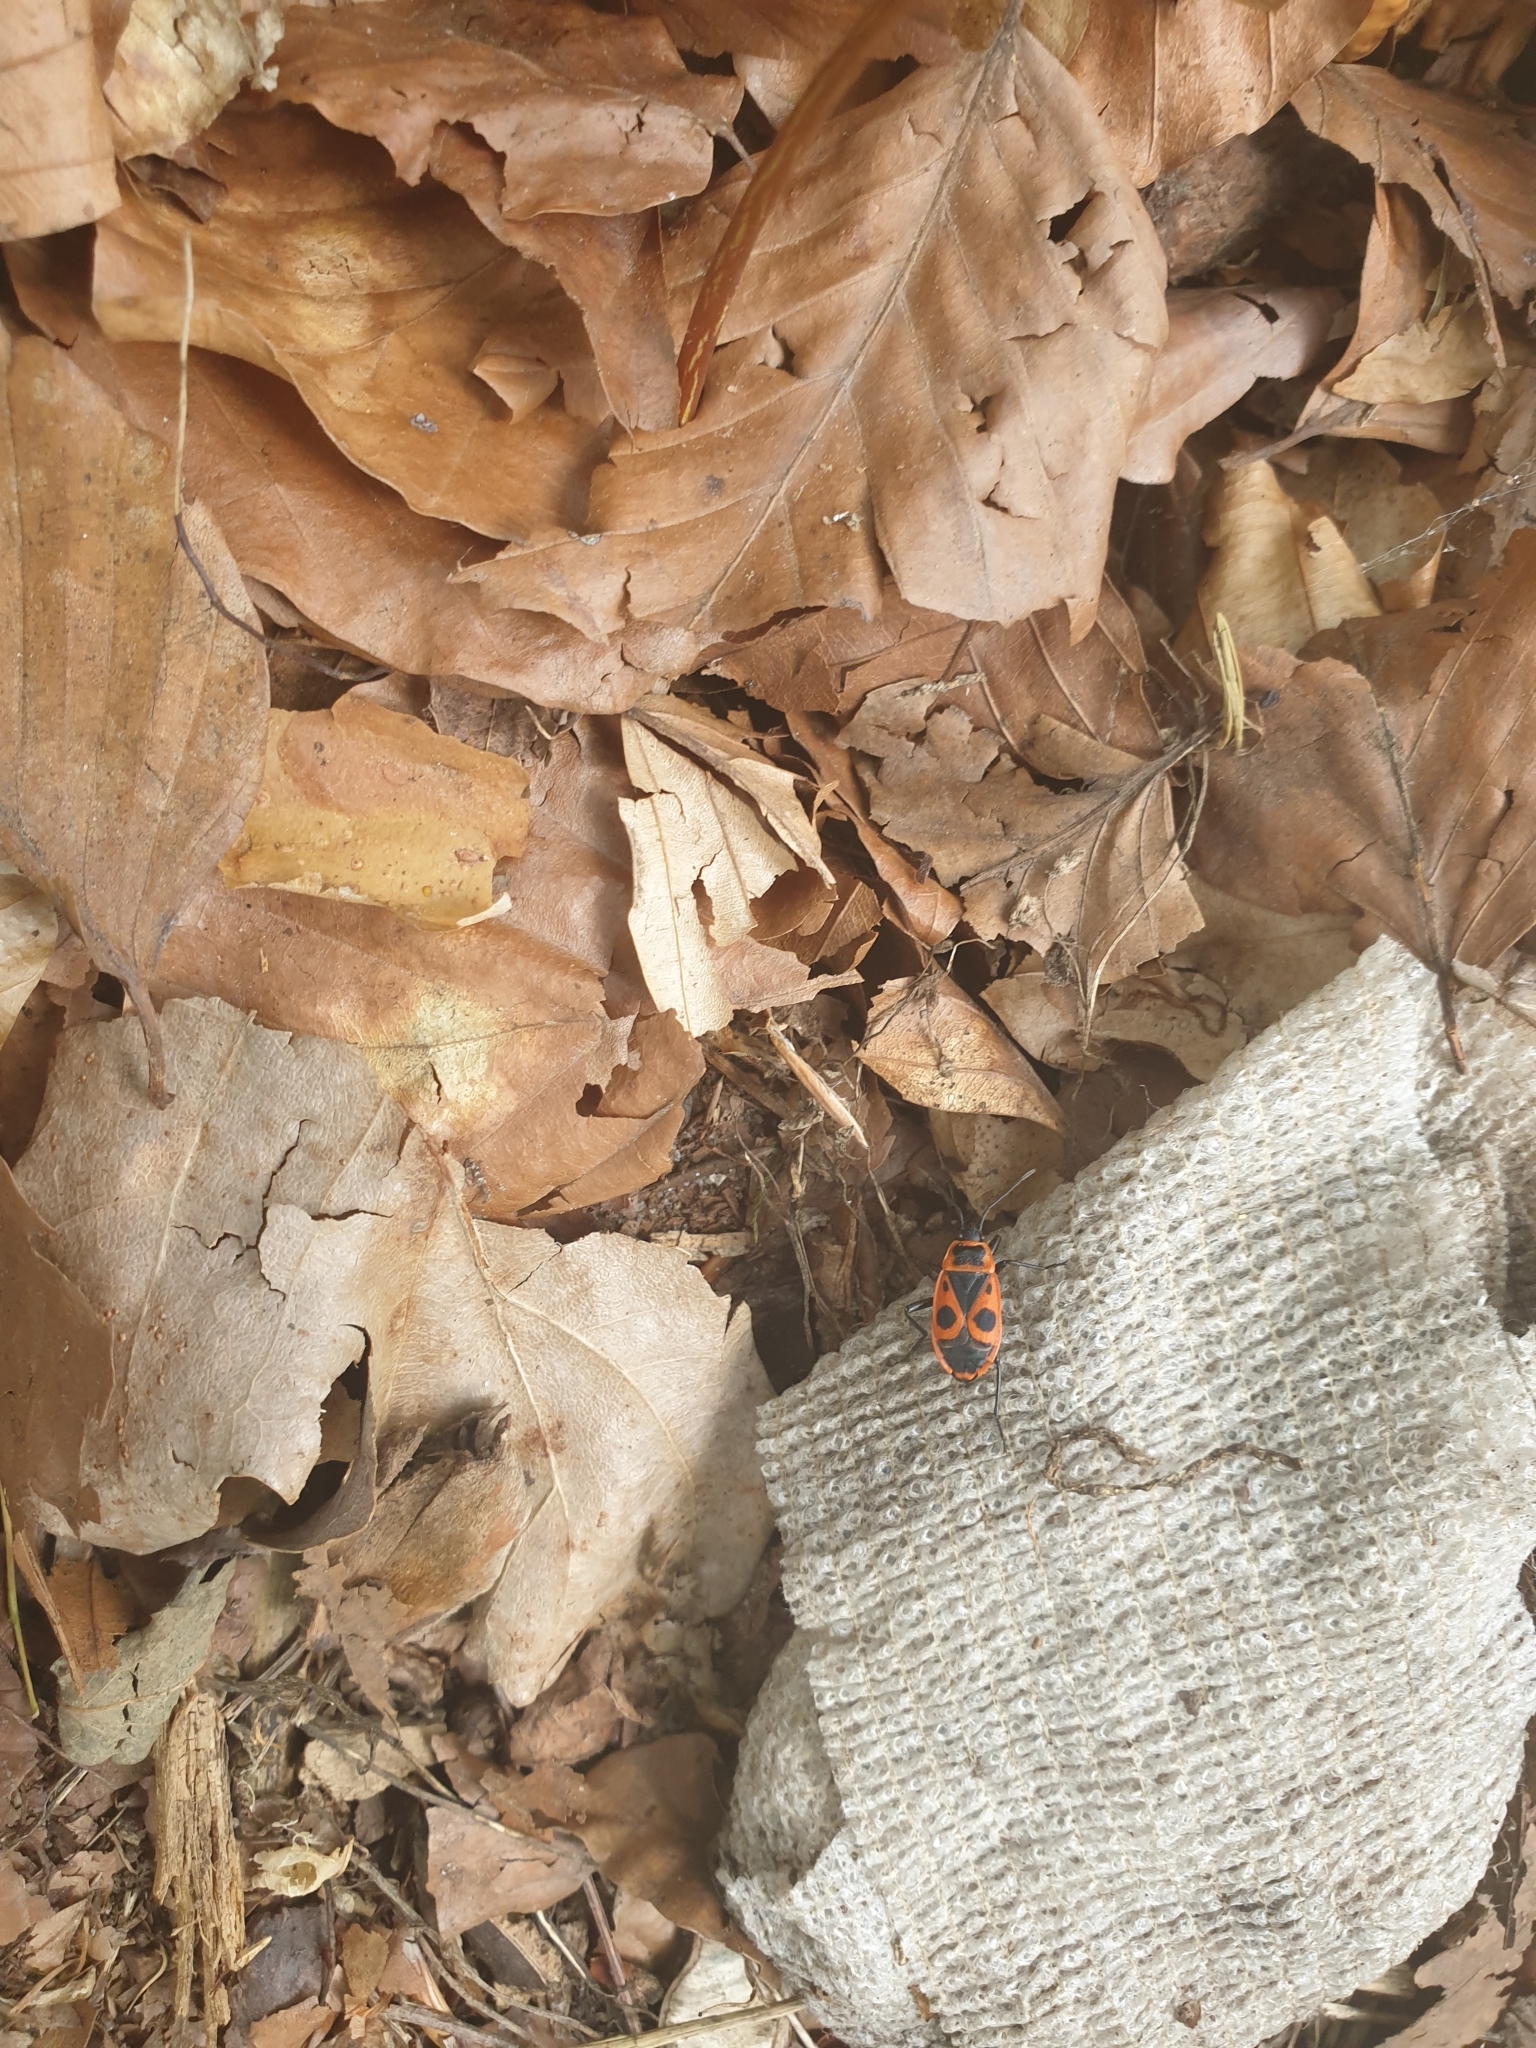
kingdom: Animalia
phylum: Arthropoda
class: Insecta
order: Hemiptera
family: Pyrrhocoridae
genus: Pyrrhocoris
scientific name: Pyrrhocoris apterus
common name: Firebug
